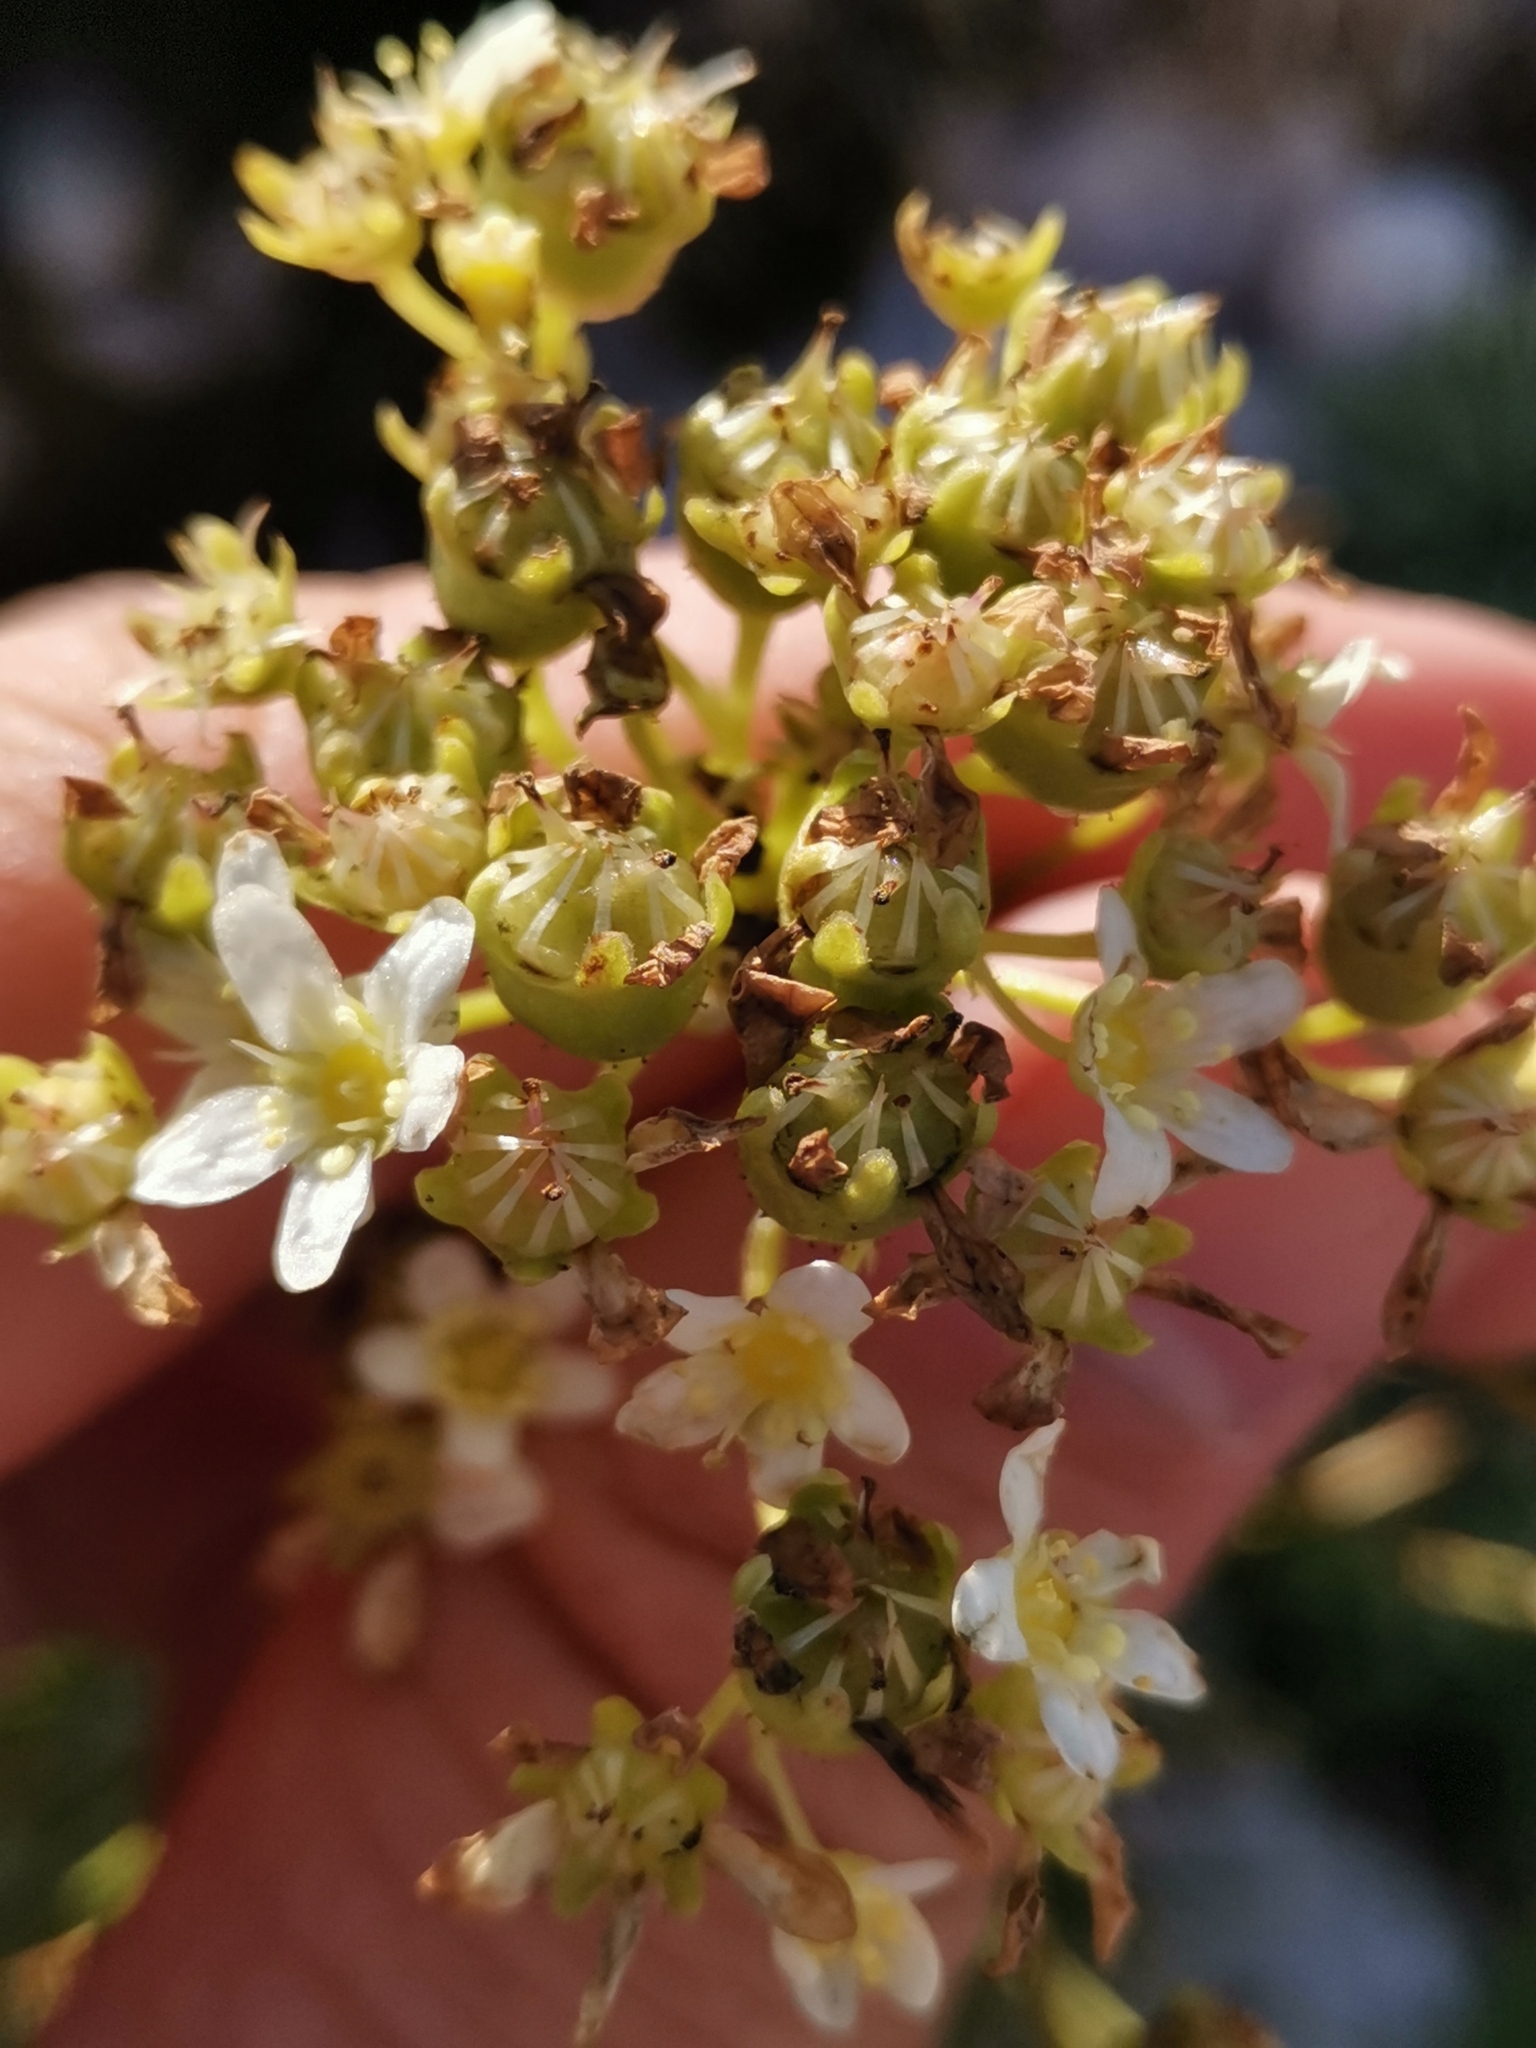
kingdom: Plantae
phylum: Tracheophyta
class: Magnoliopsida
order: Saxifragales
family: Saxifragaceae
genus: Saxifraga
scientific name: Saxifraga crustata
